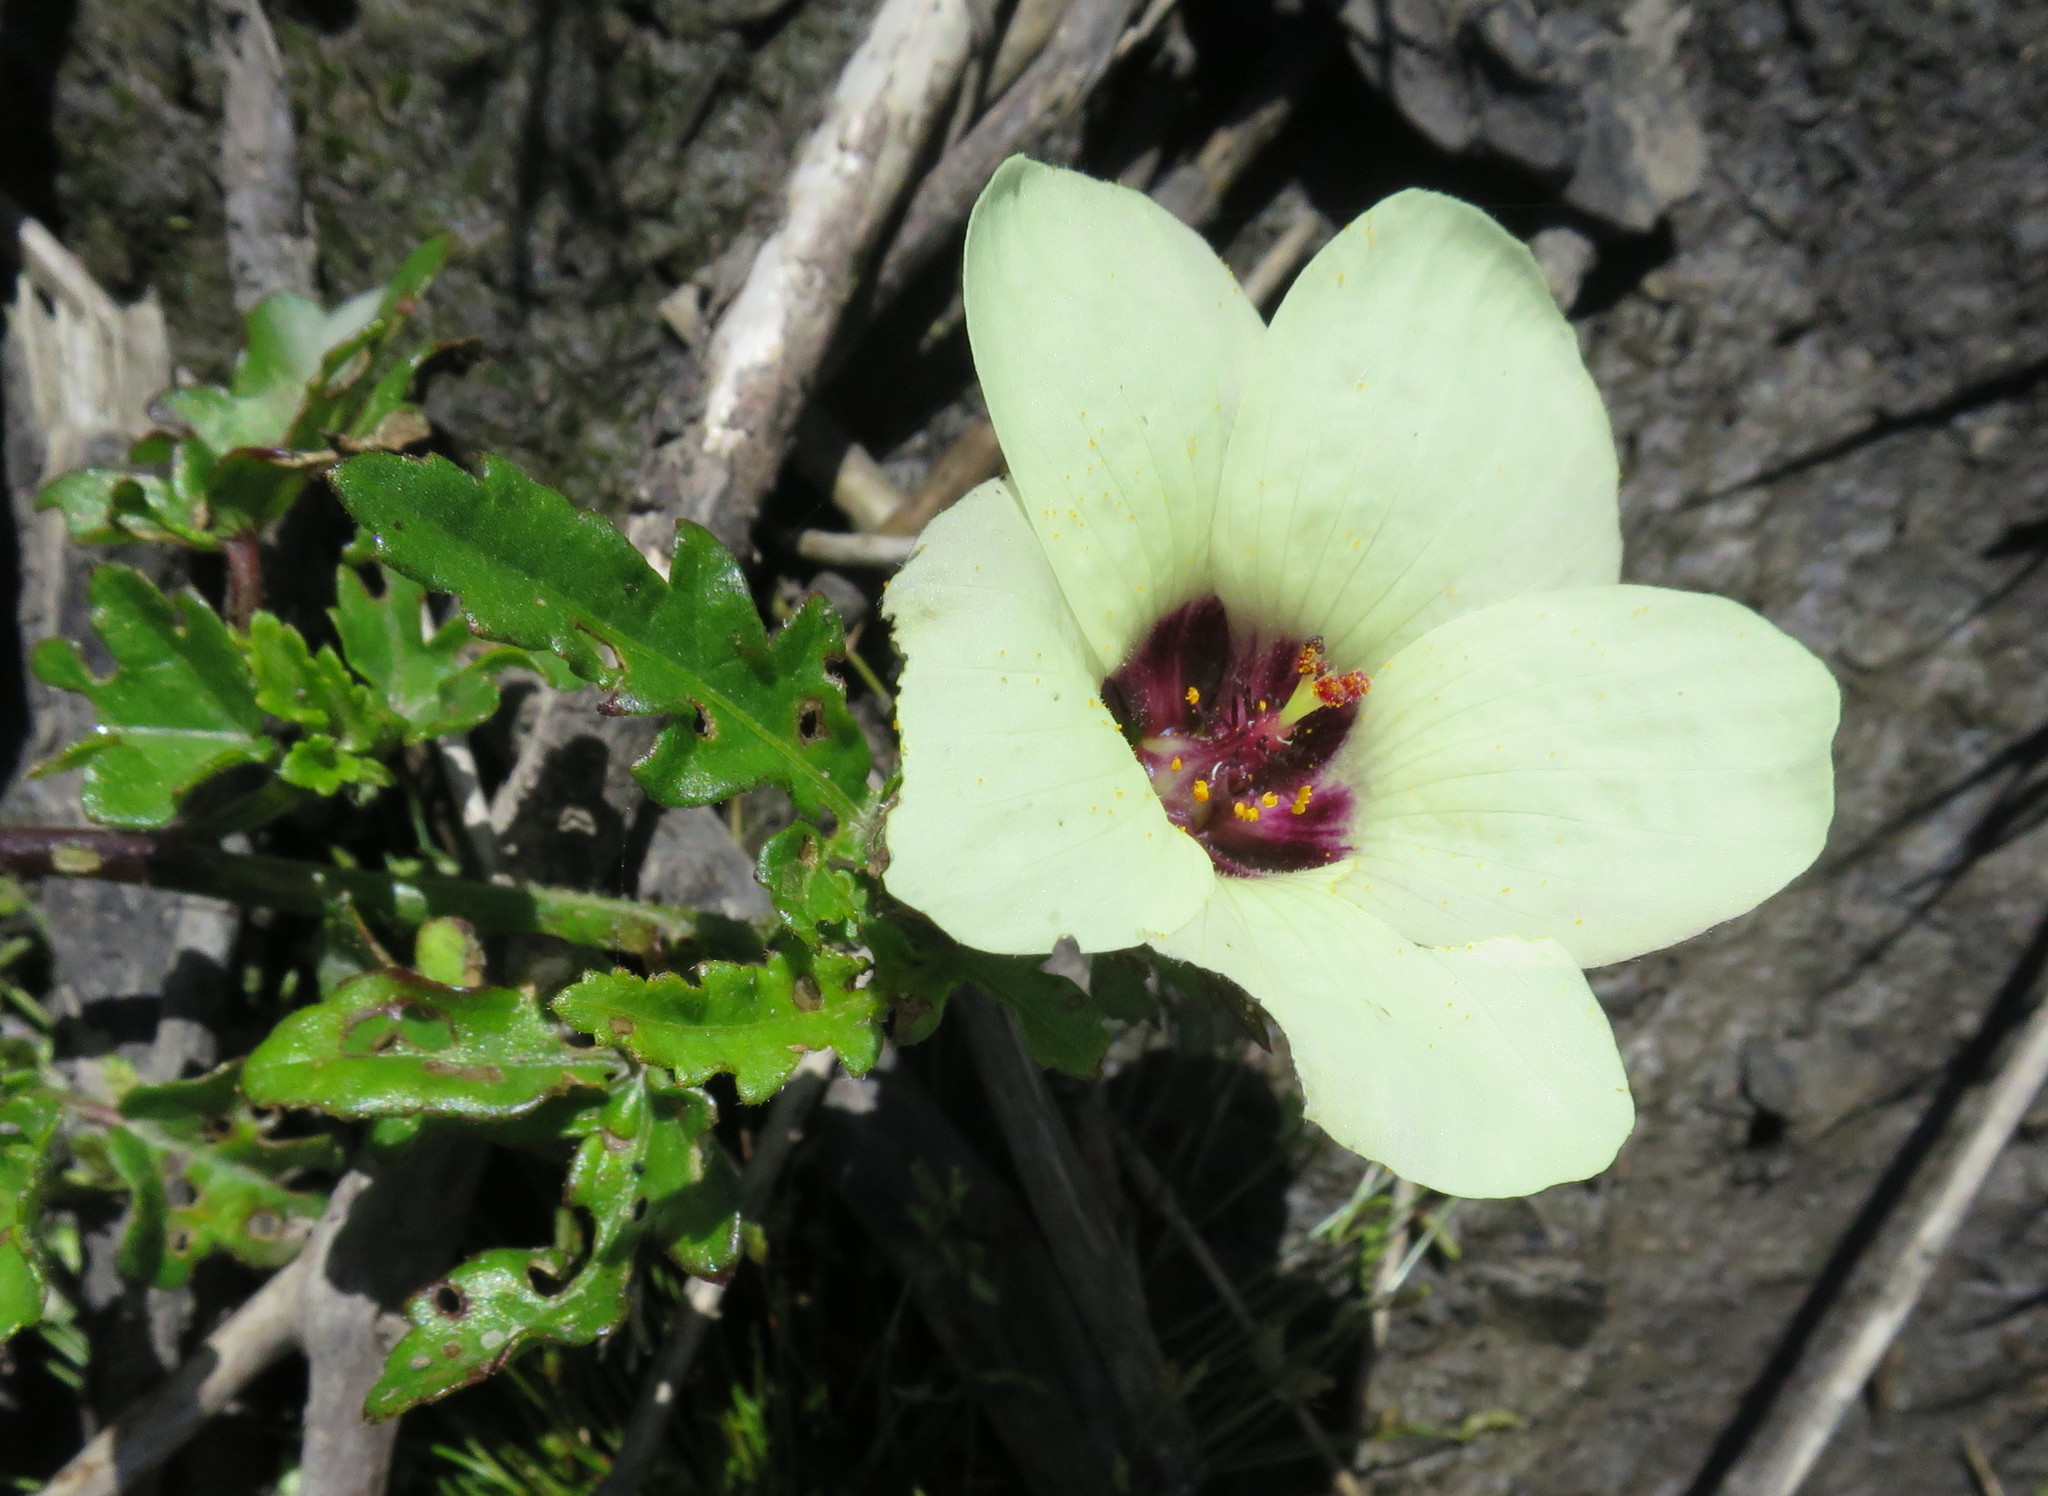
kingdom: Plantae
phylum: Tracheophyta
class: Magnoliopsida
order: Malvales
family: Malvaceae
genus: Hibiscus
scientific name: Hibiscus trionum
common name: Bladder ketmia
